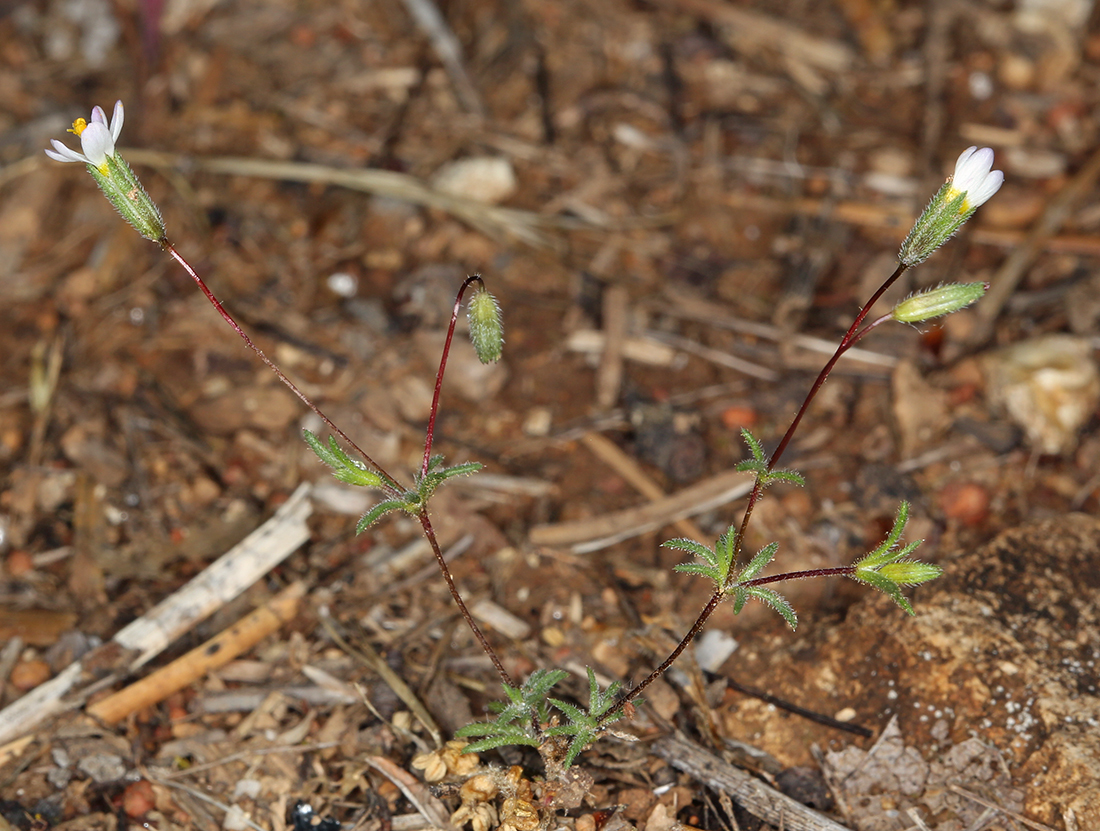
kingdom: Plantae
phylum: Tracheophyta
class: Magnoliopsida
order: Ericales
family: Polemoniaceae
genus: Leptosiphon
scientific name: Leptosiphon pygmaeus
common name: Pygmy linanthus
